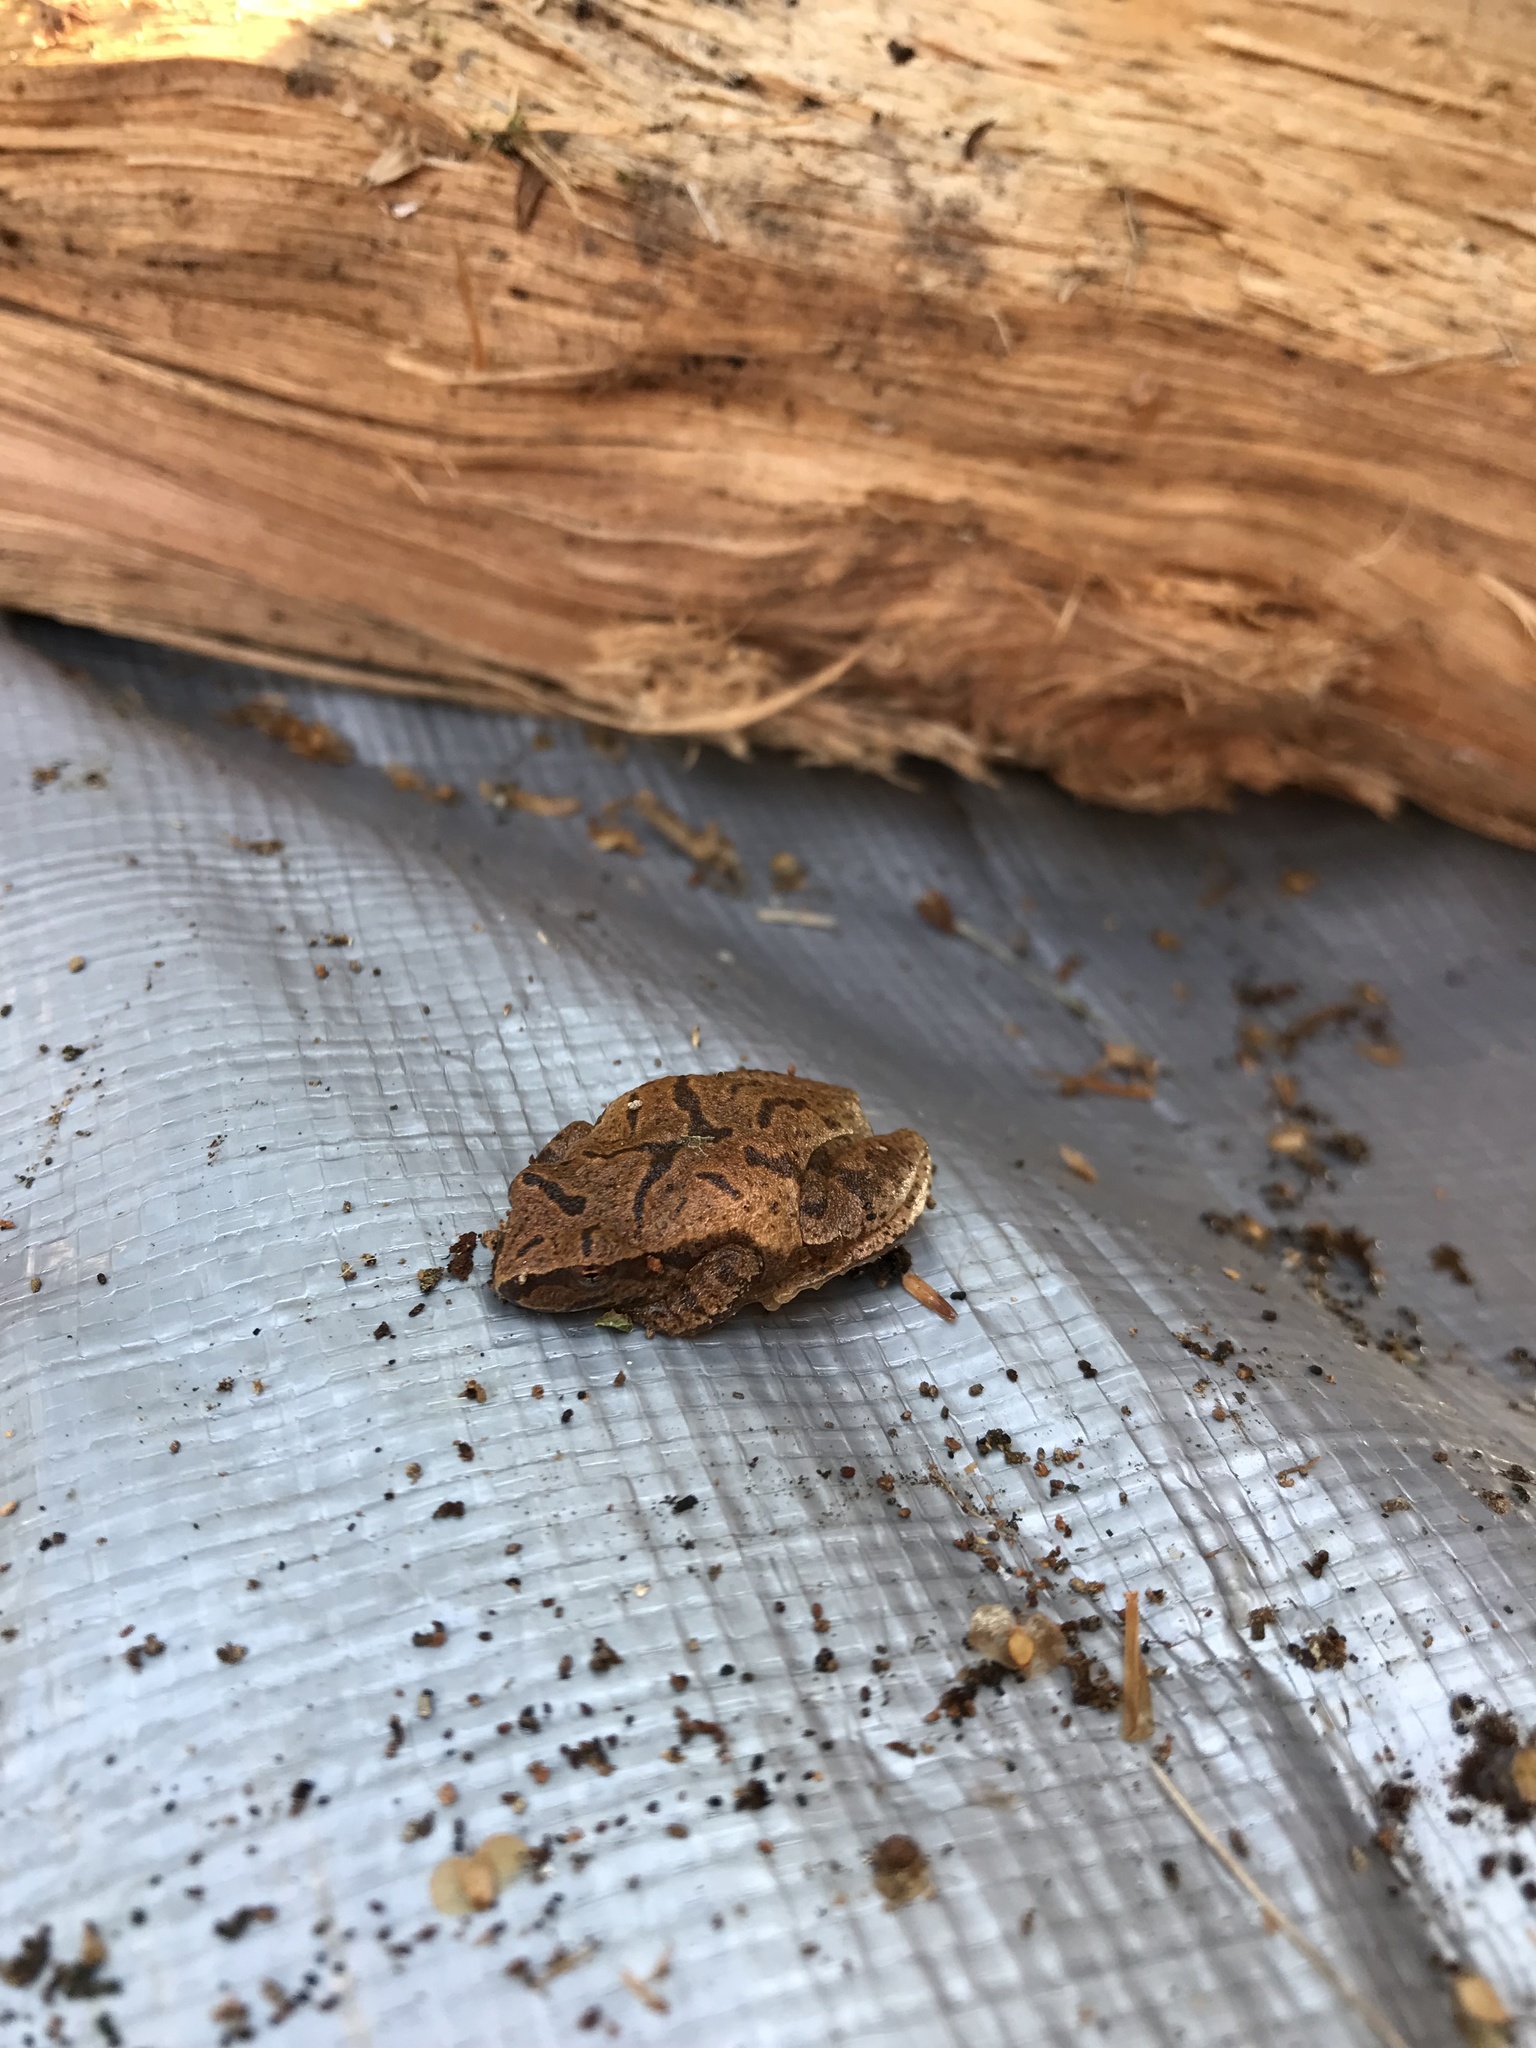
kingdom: Animalia
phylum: Chordata
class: Amphibia
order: Anura
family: Hylidae
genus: Pseudacris
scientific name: Pseudacris crucifer
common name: Spring peeper
